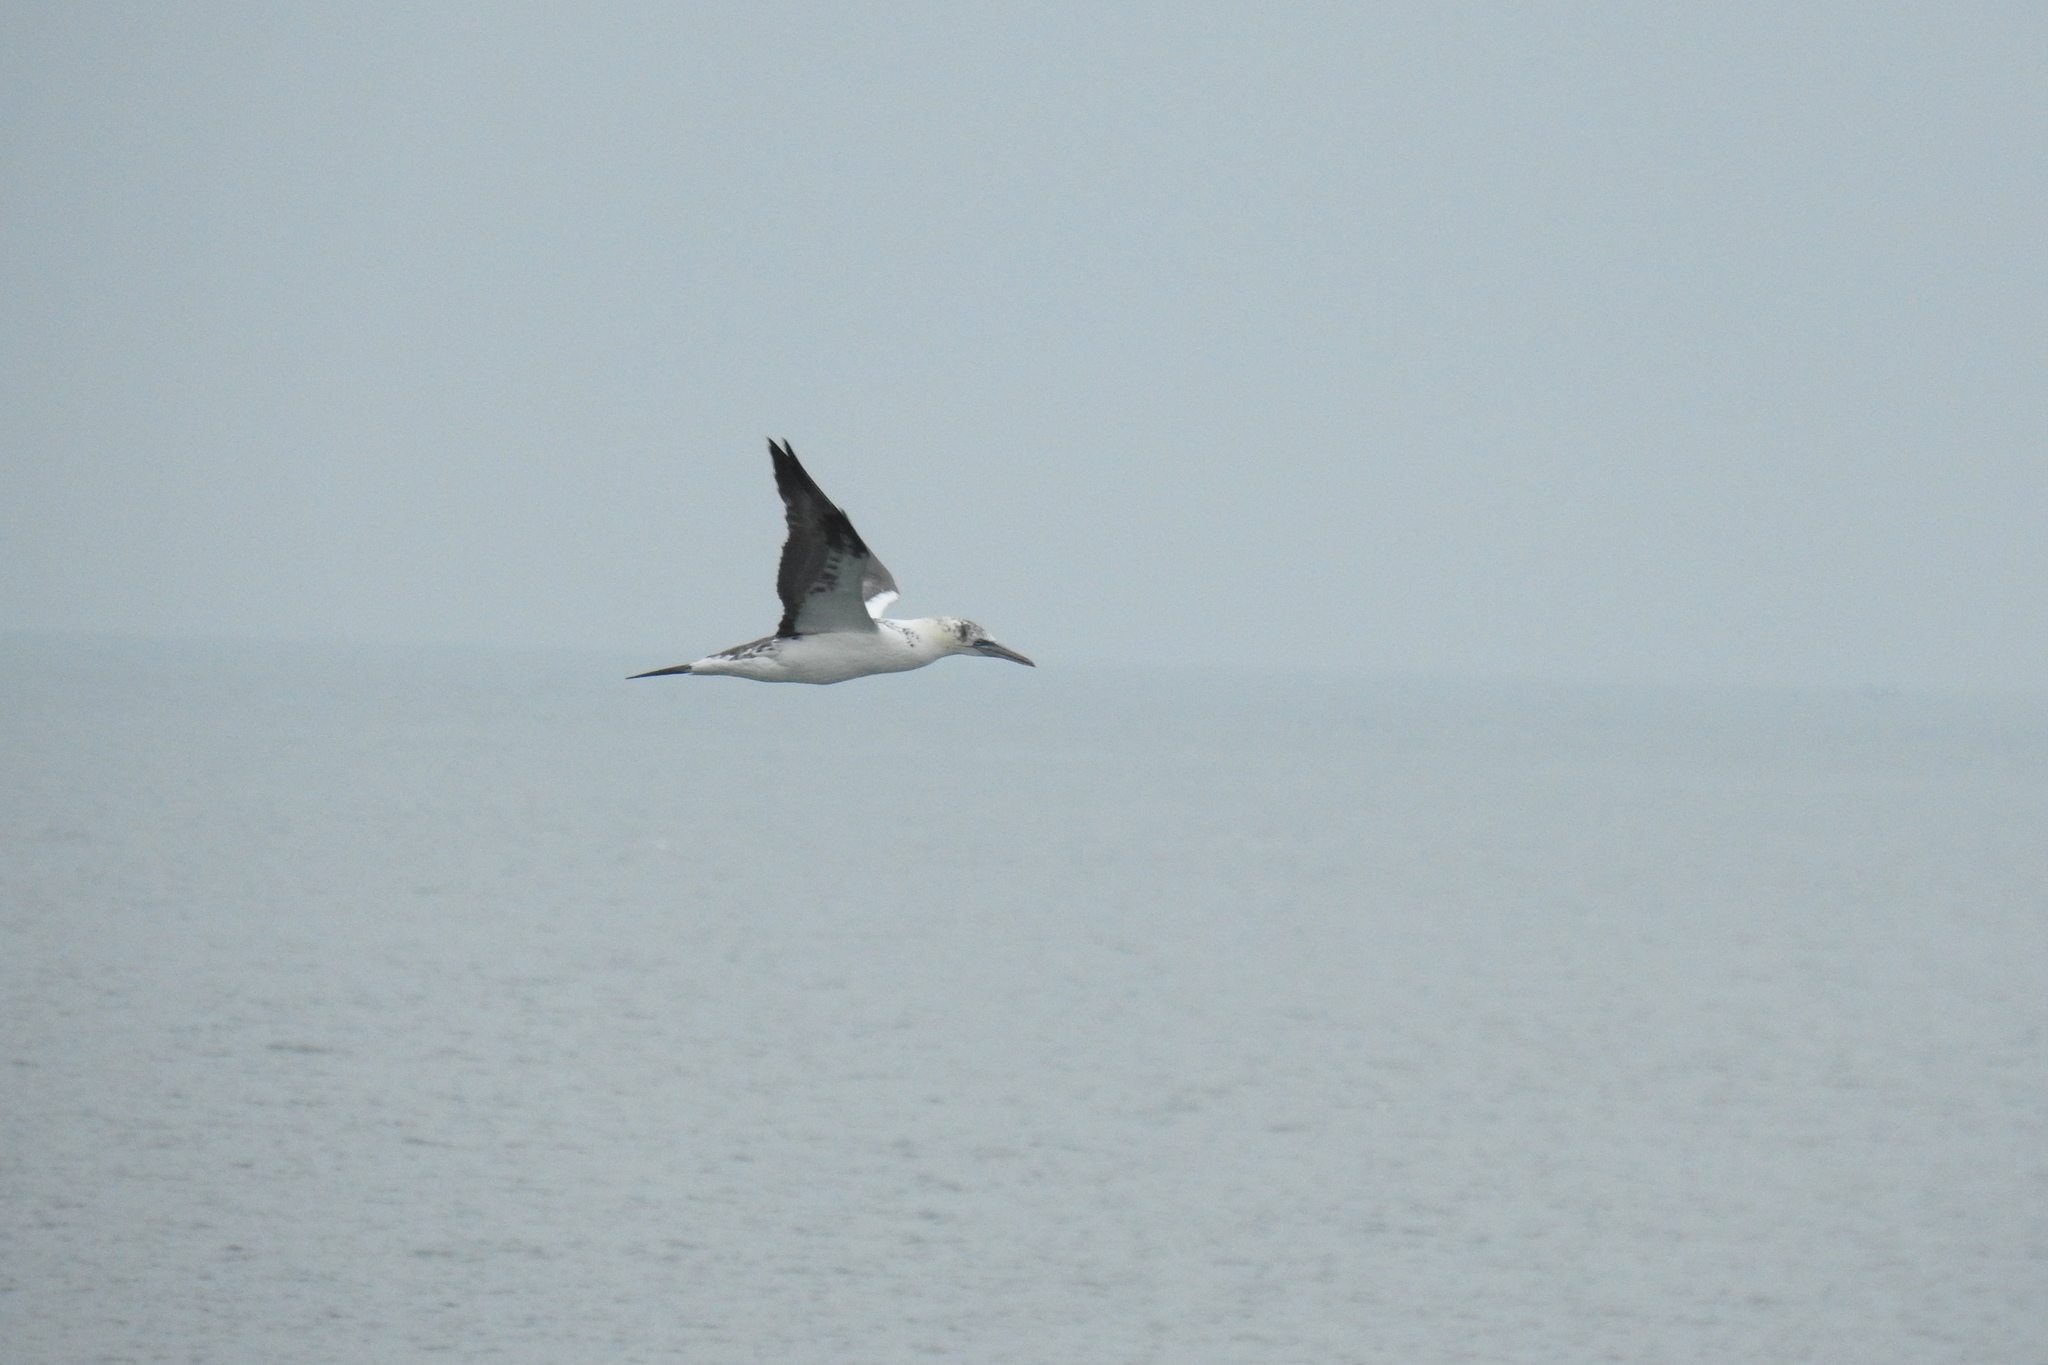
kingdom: Animalia
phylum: Chordata
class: Aves
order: Suliformes
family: Sulidae
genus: Morus
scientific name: Morus bassanus
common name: Northern gannet
